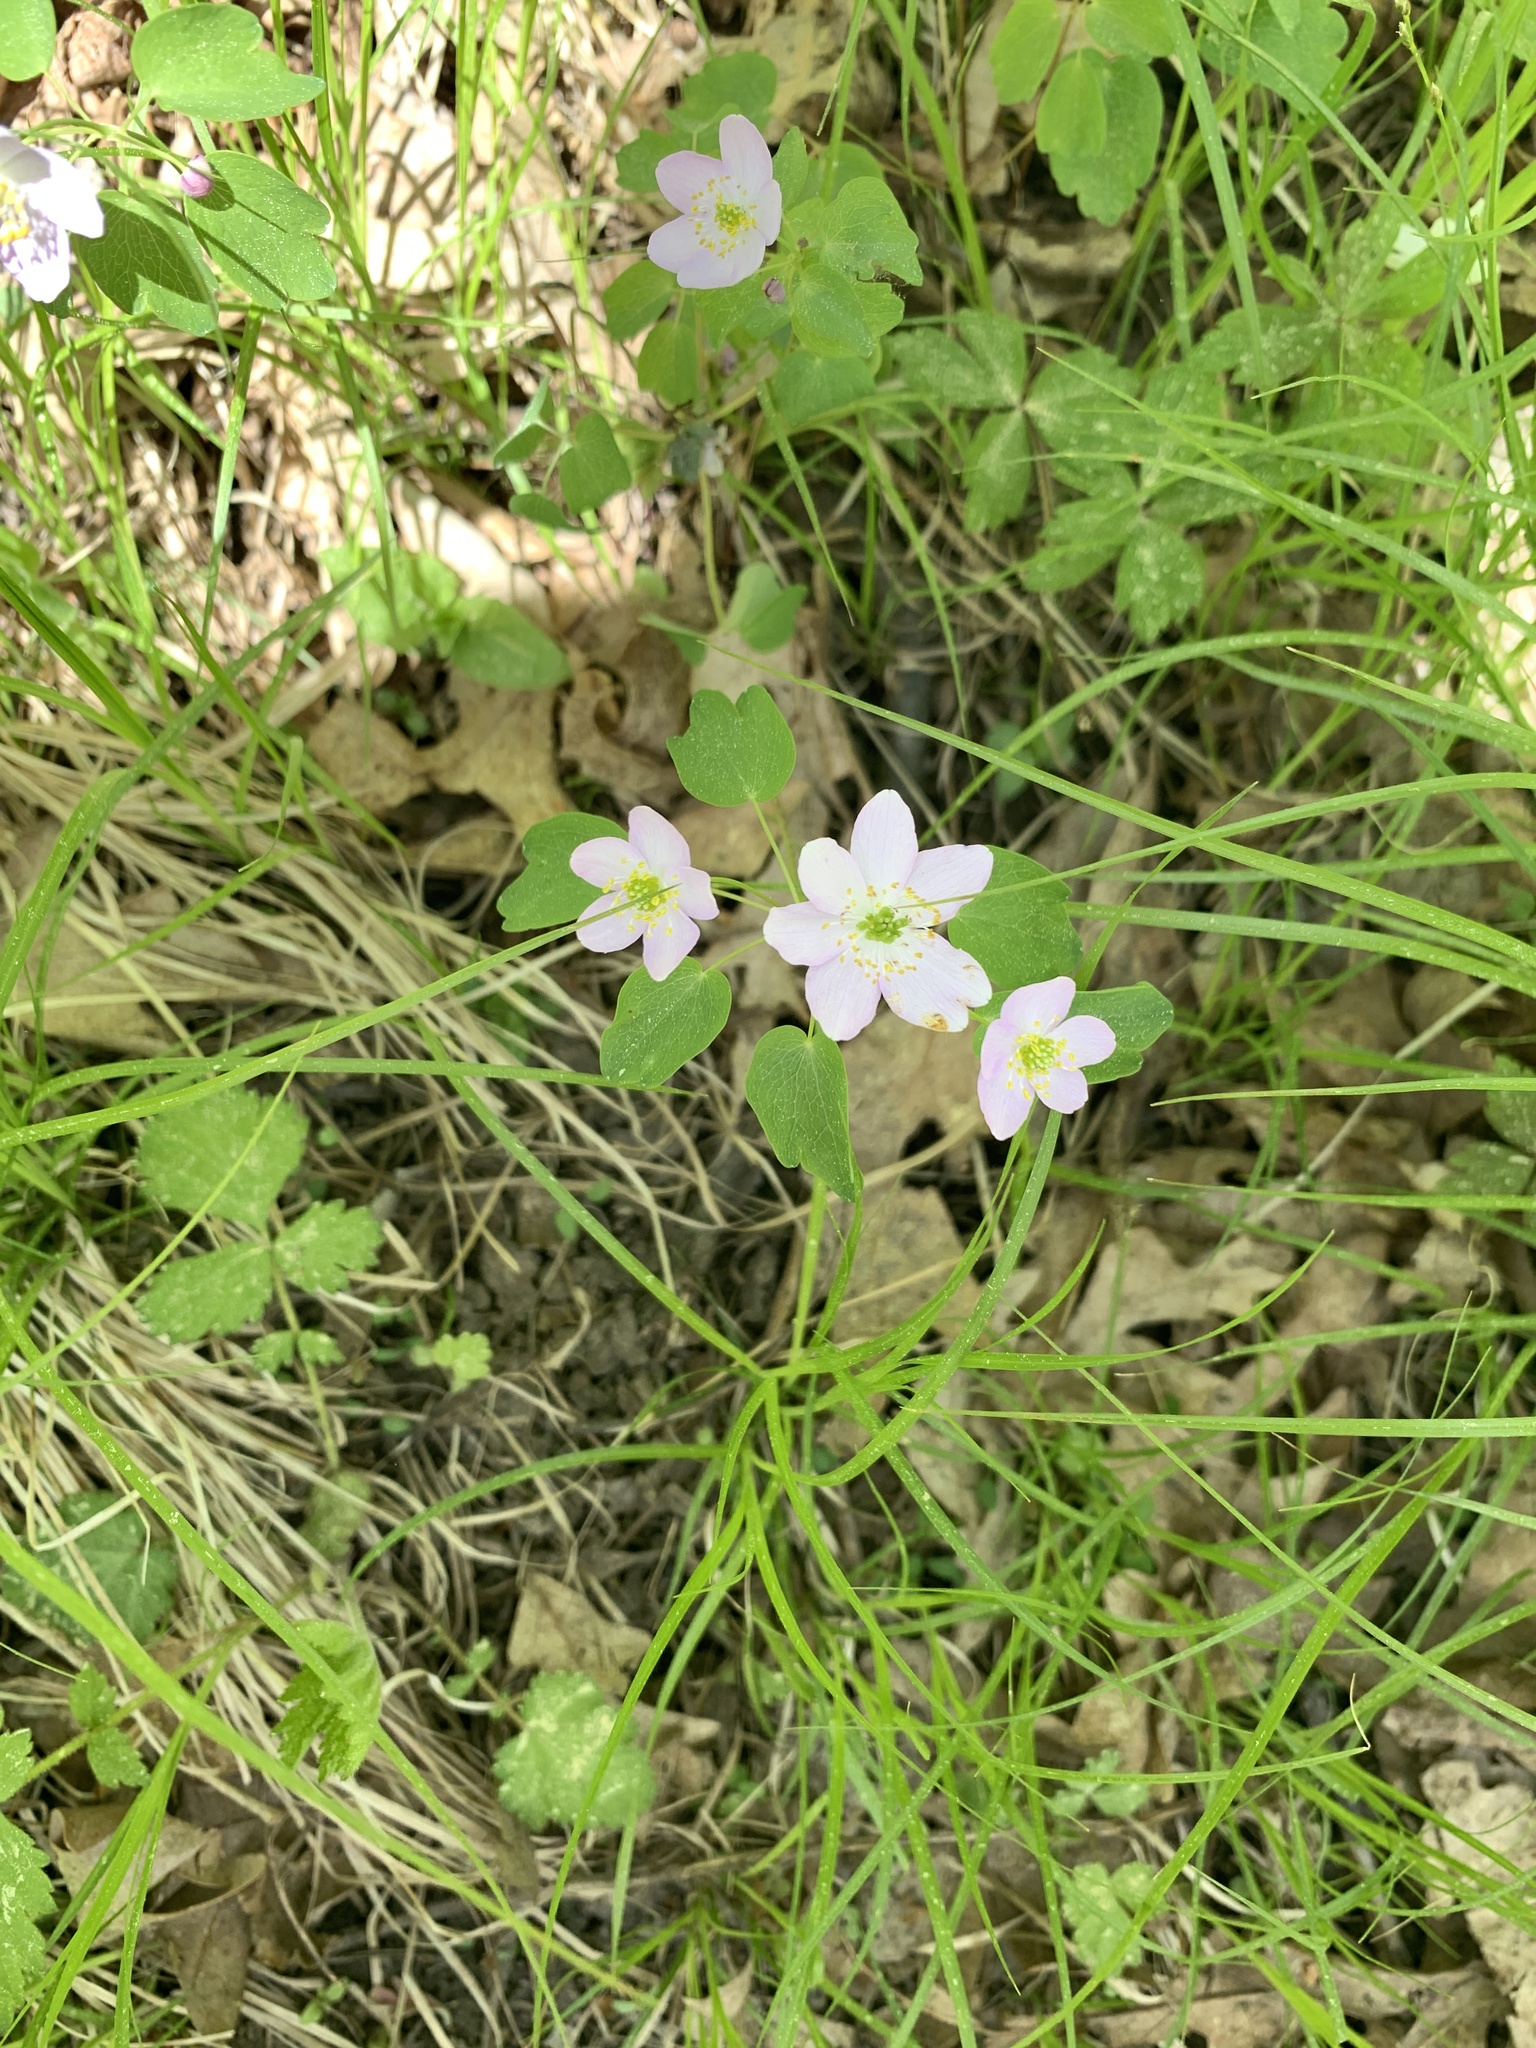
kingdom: Plantae
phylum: Tracheophyta
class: Magnoliopsida
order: Ranunculales
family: Ranunculaceae
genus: Thalictrum
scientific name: Thalictrum thalictroides
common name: Rue-anemone
